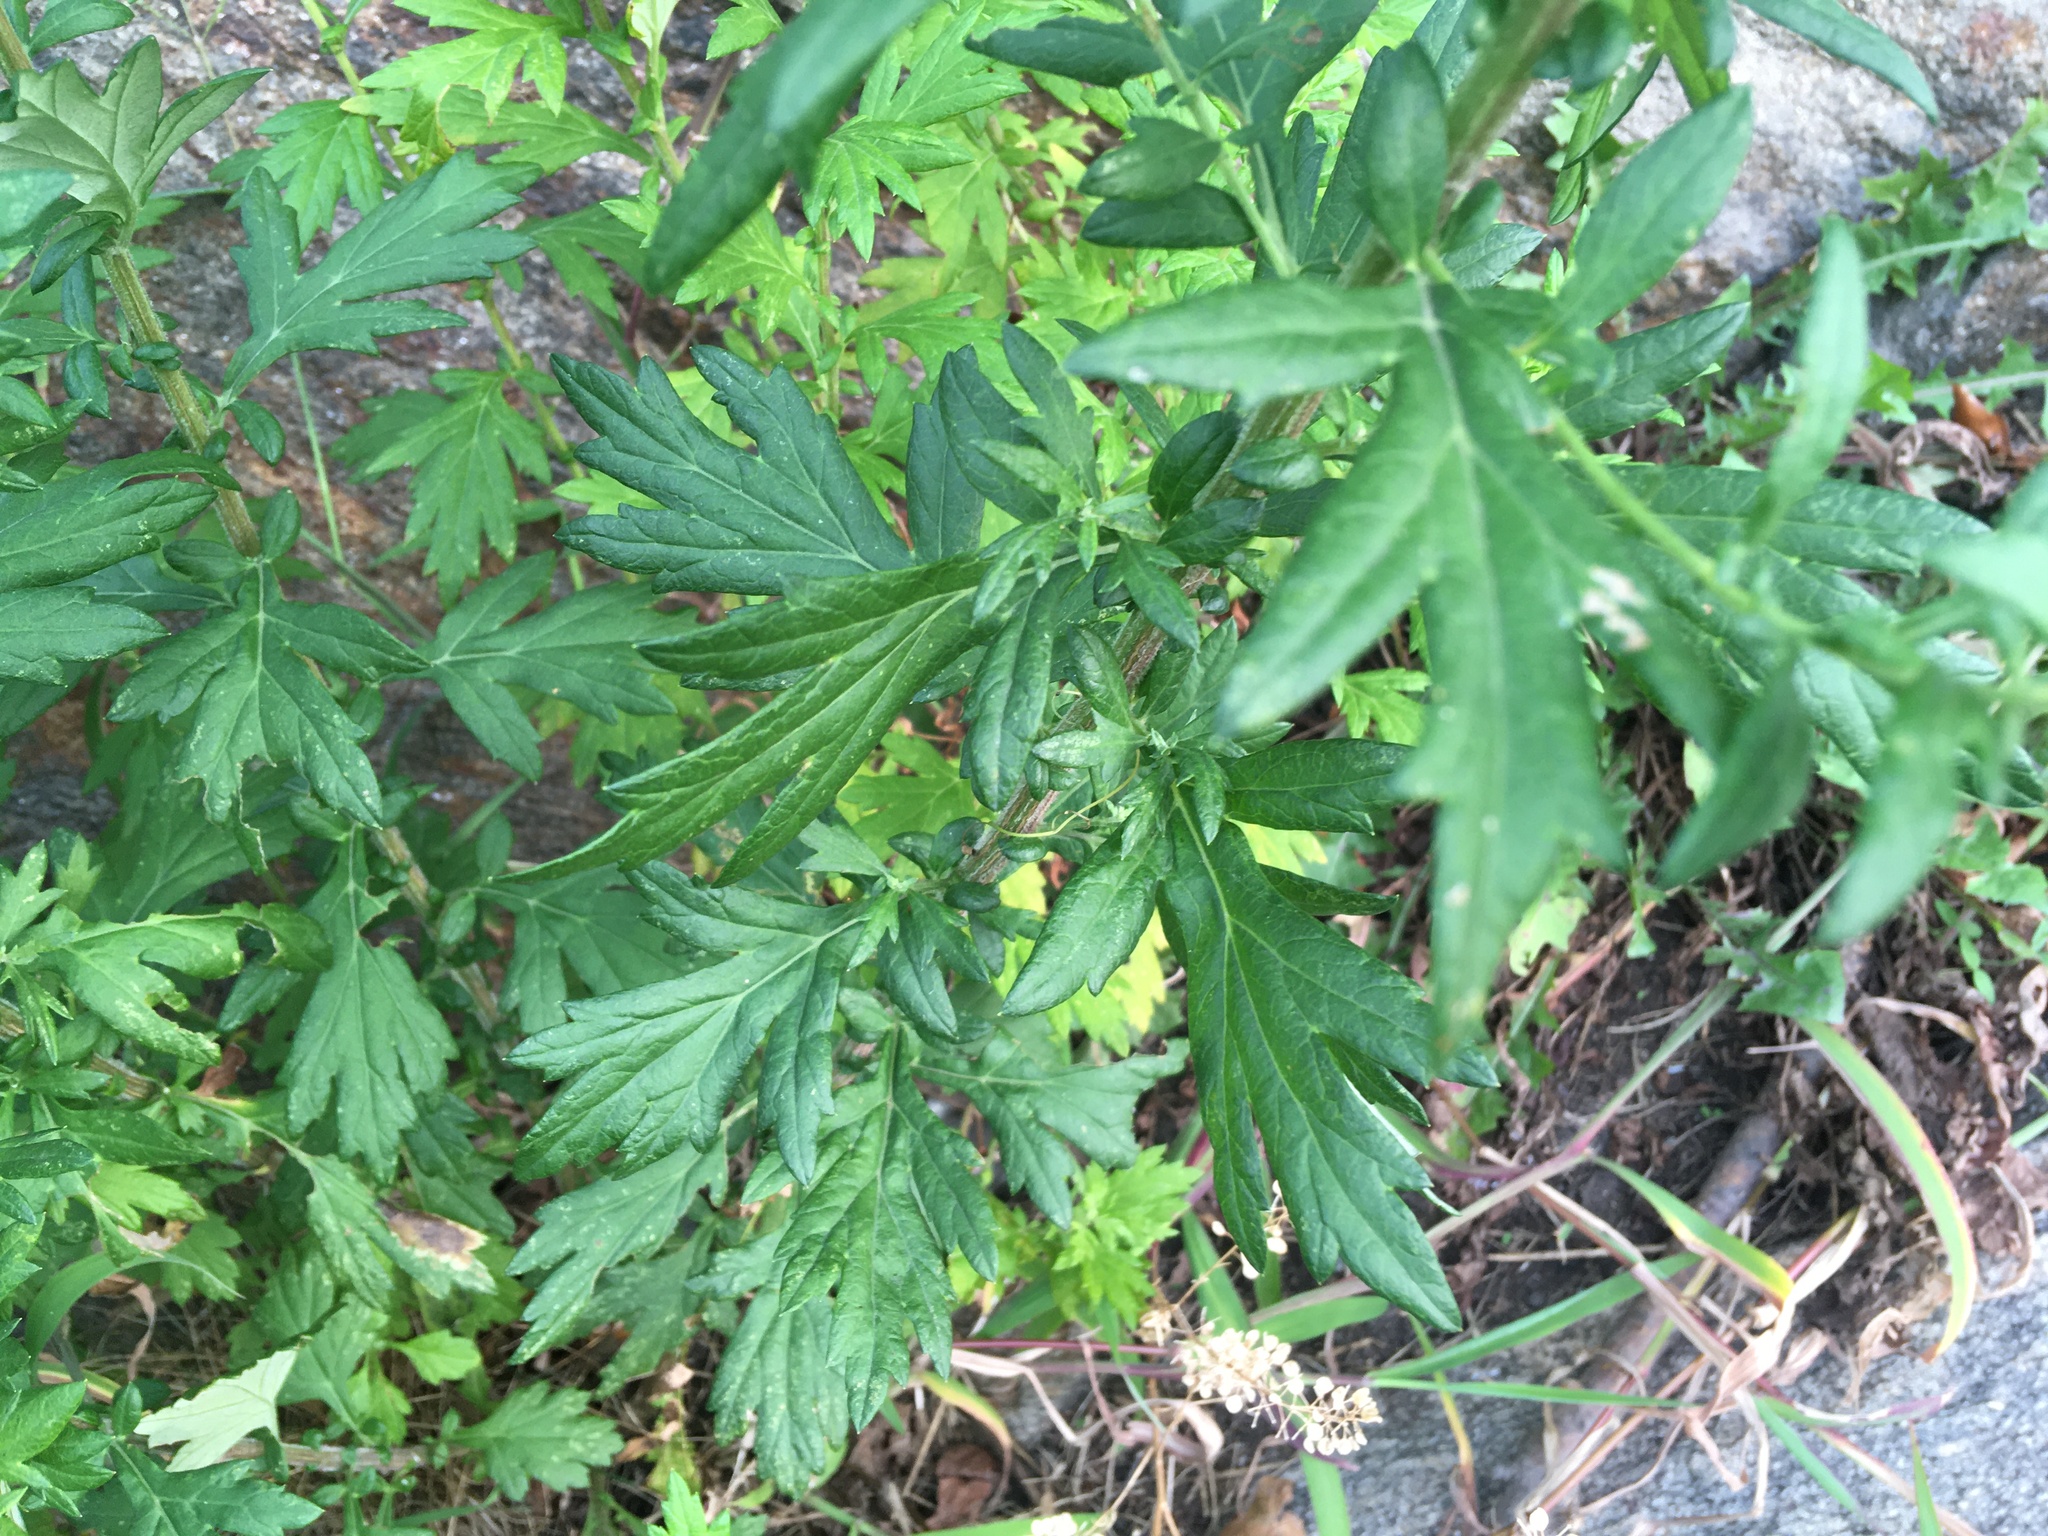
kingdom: Plantae
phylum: Tracheophyta
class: Magnoliopsida
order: Asterales
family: Asteraceae
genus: Artemisia
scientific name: Artemisia vulgaris
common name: Mugwort
